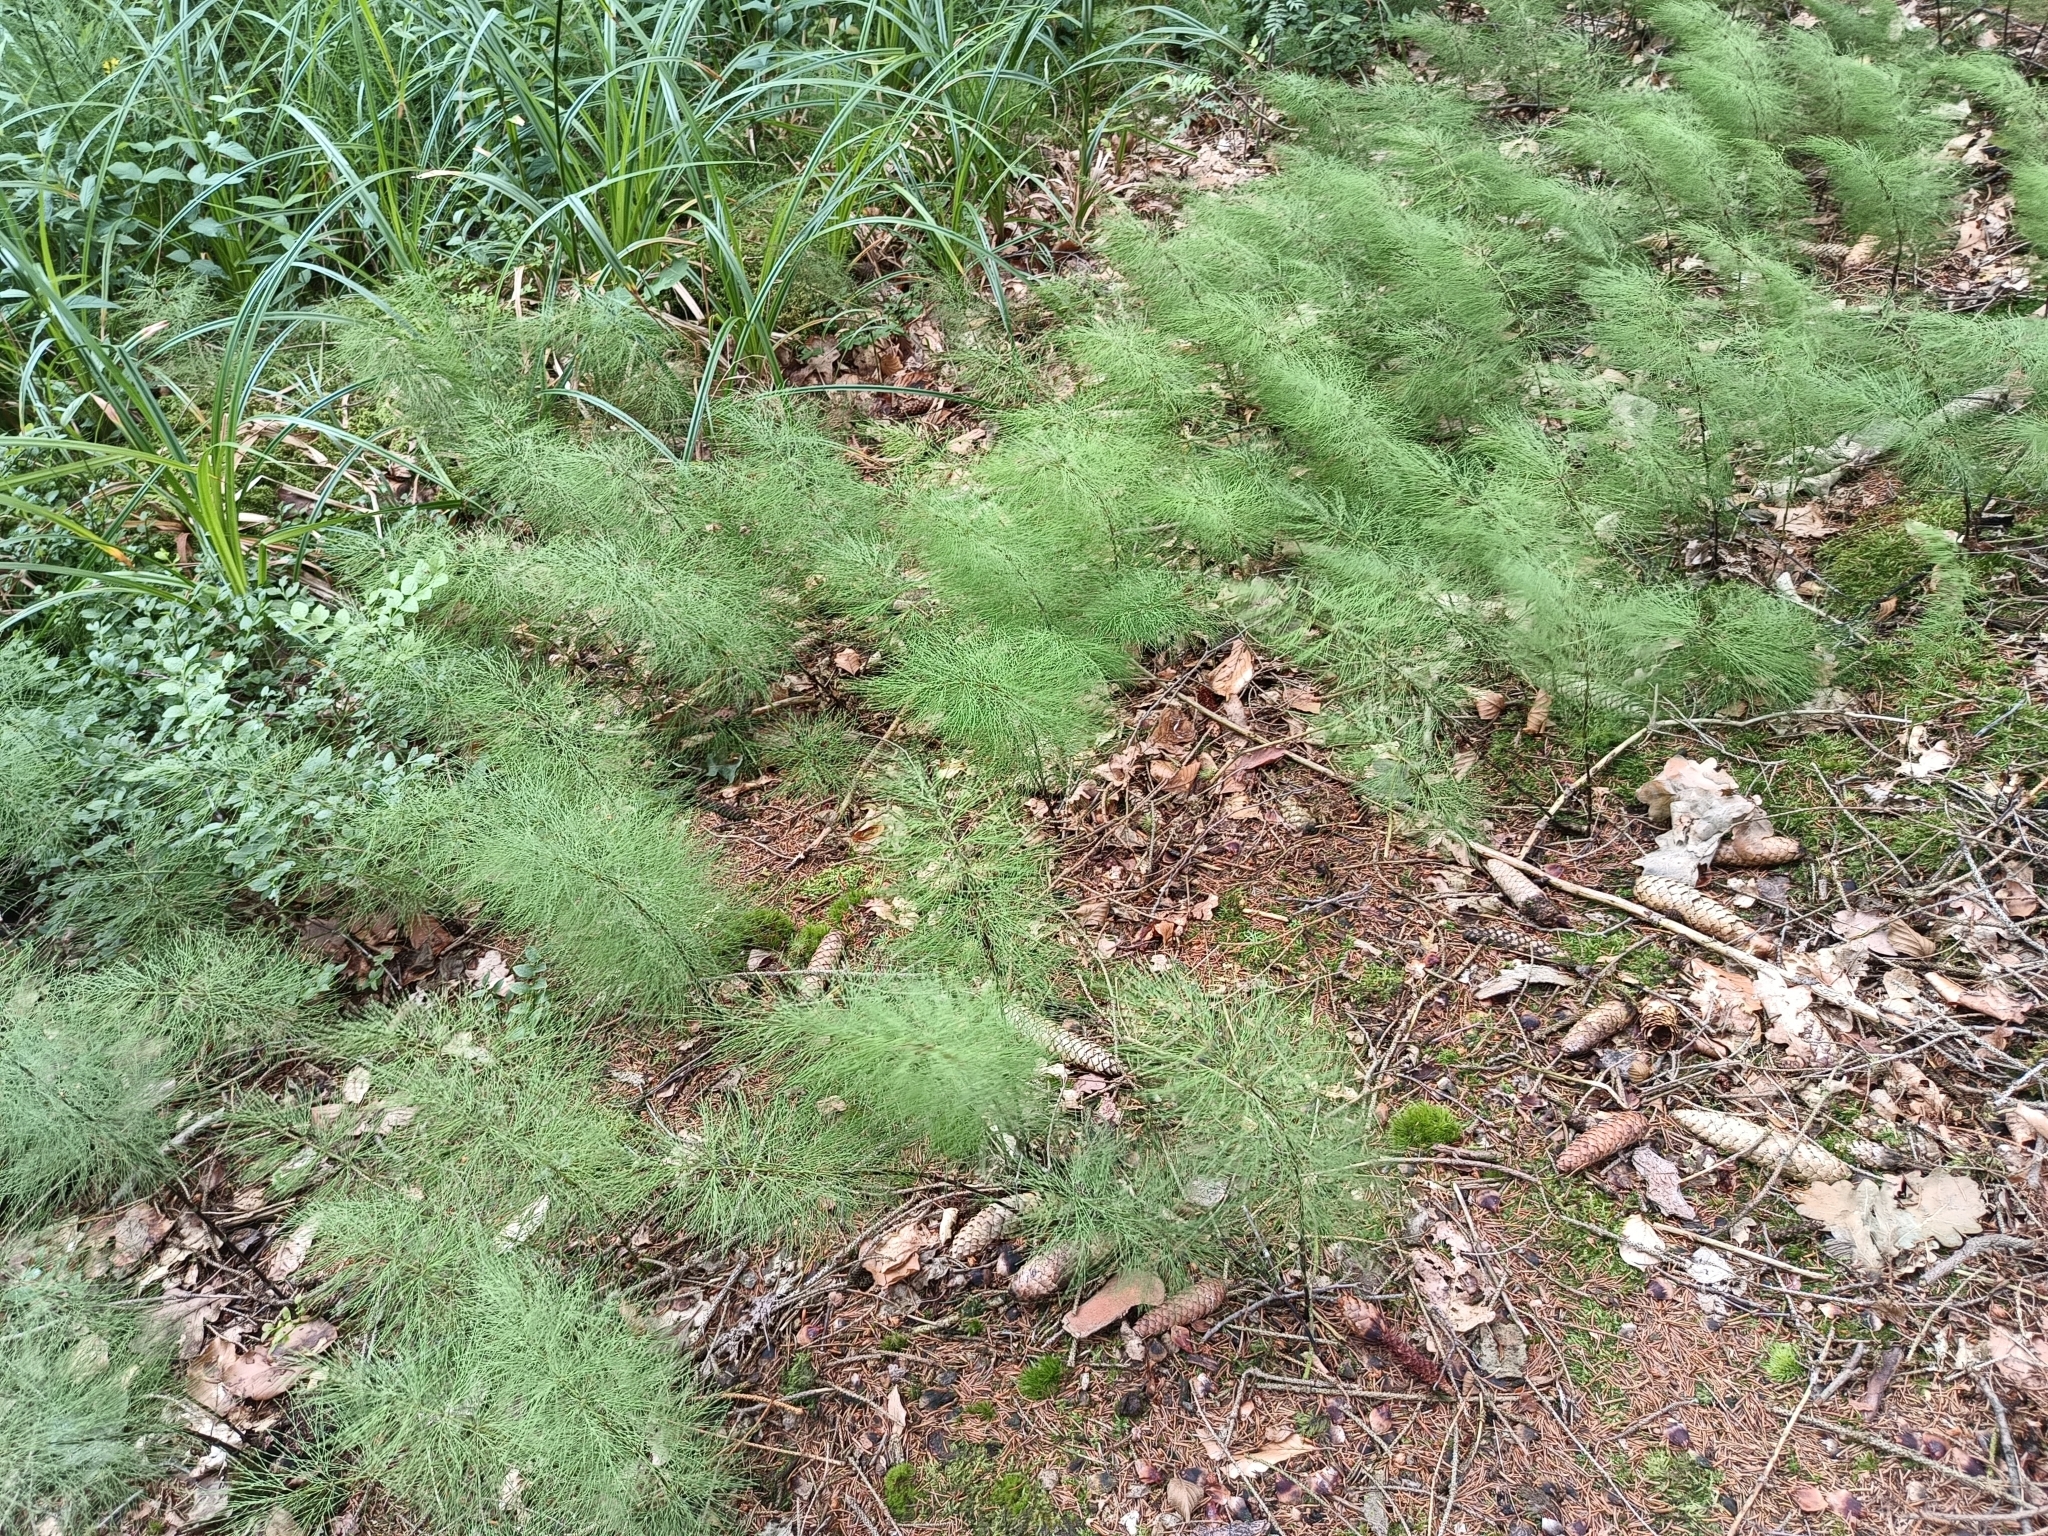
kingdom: Plantae
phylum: Tracheophyta
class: Polypodiopsida
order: Equisetales
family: Equisetaceae
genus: Equisetum
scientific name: Equisetum sylvaticum
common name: Wood horsetail
